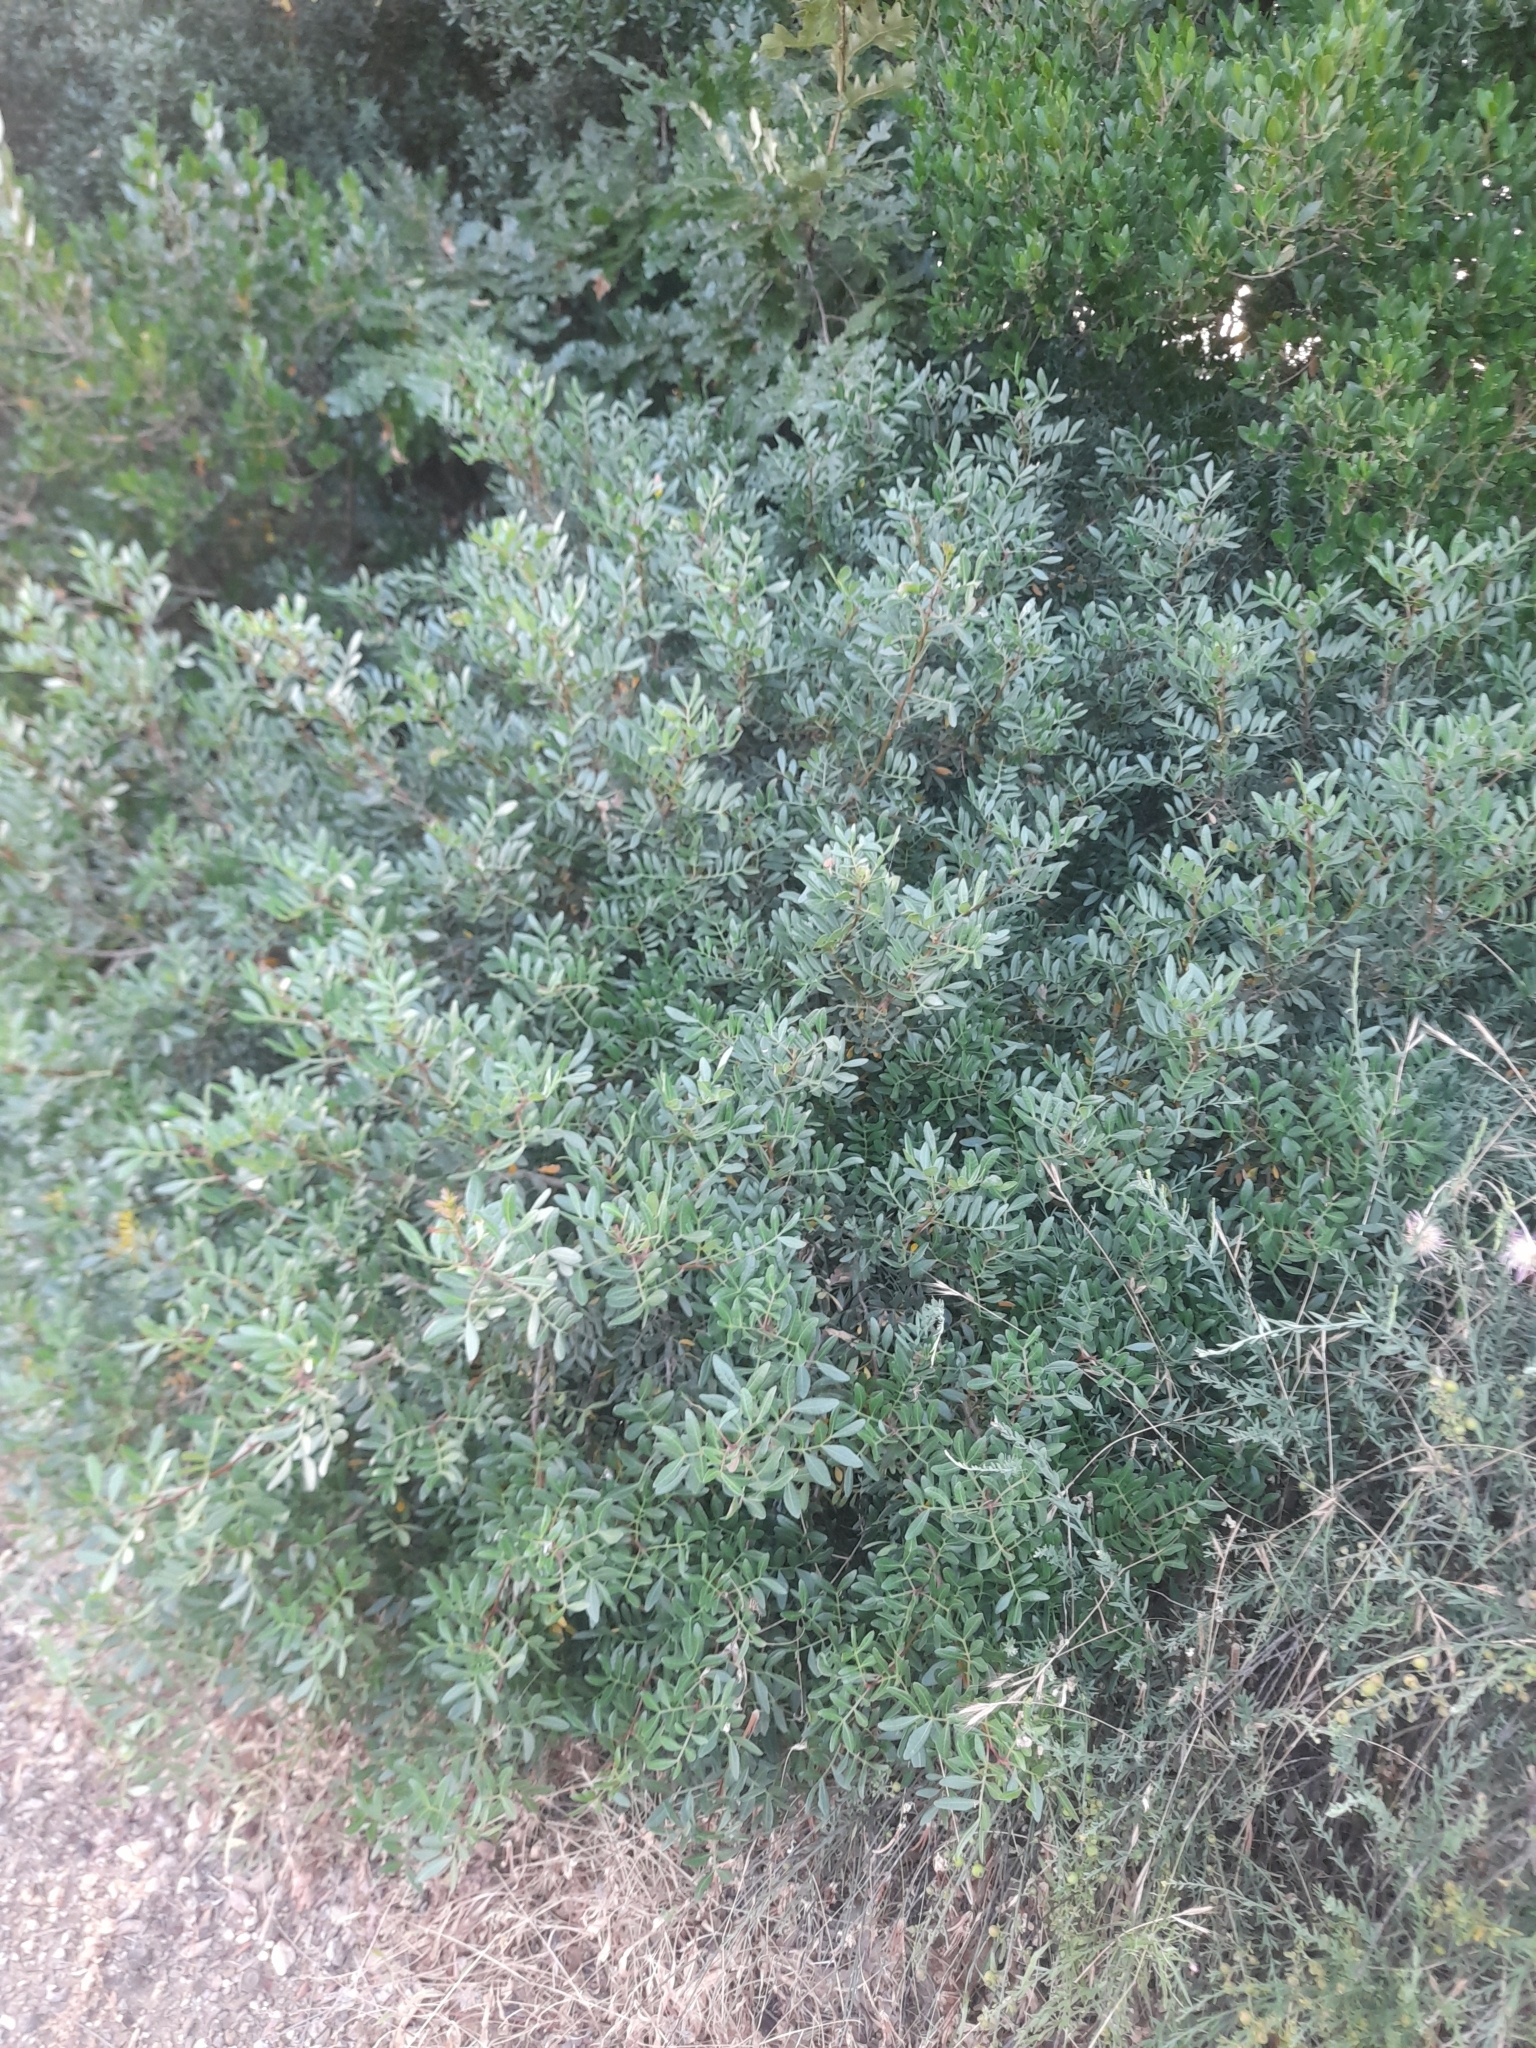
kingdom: Plantae
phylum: Tracheophyta
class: Magnoliopsida
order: Sapindales
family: Anacardiaceae
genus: Pistacia
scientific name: Pistacia lentiscus
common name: Lentisk
